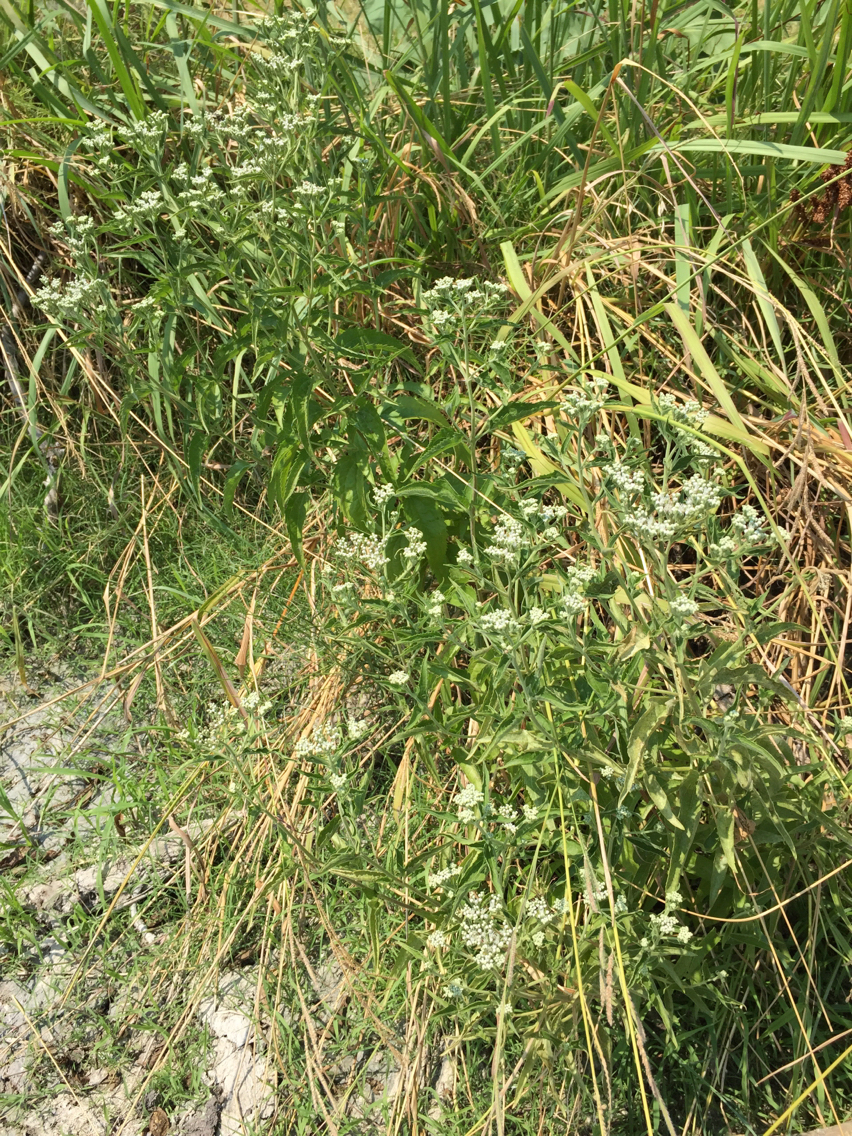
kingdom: Plantae
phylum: Tracheophyta
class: Magnoliopsida
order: Asterales
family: Asteraceae
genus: Eupatorium
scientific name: Eupatorium serotinum
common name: Late boneset
